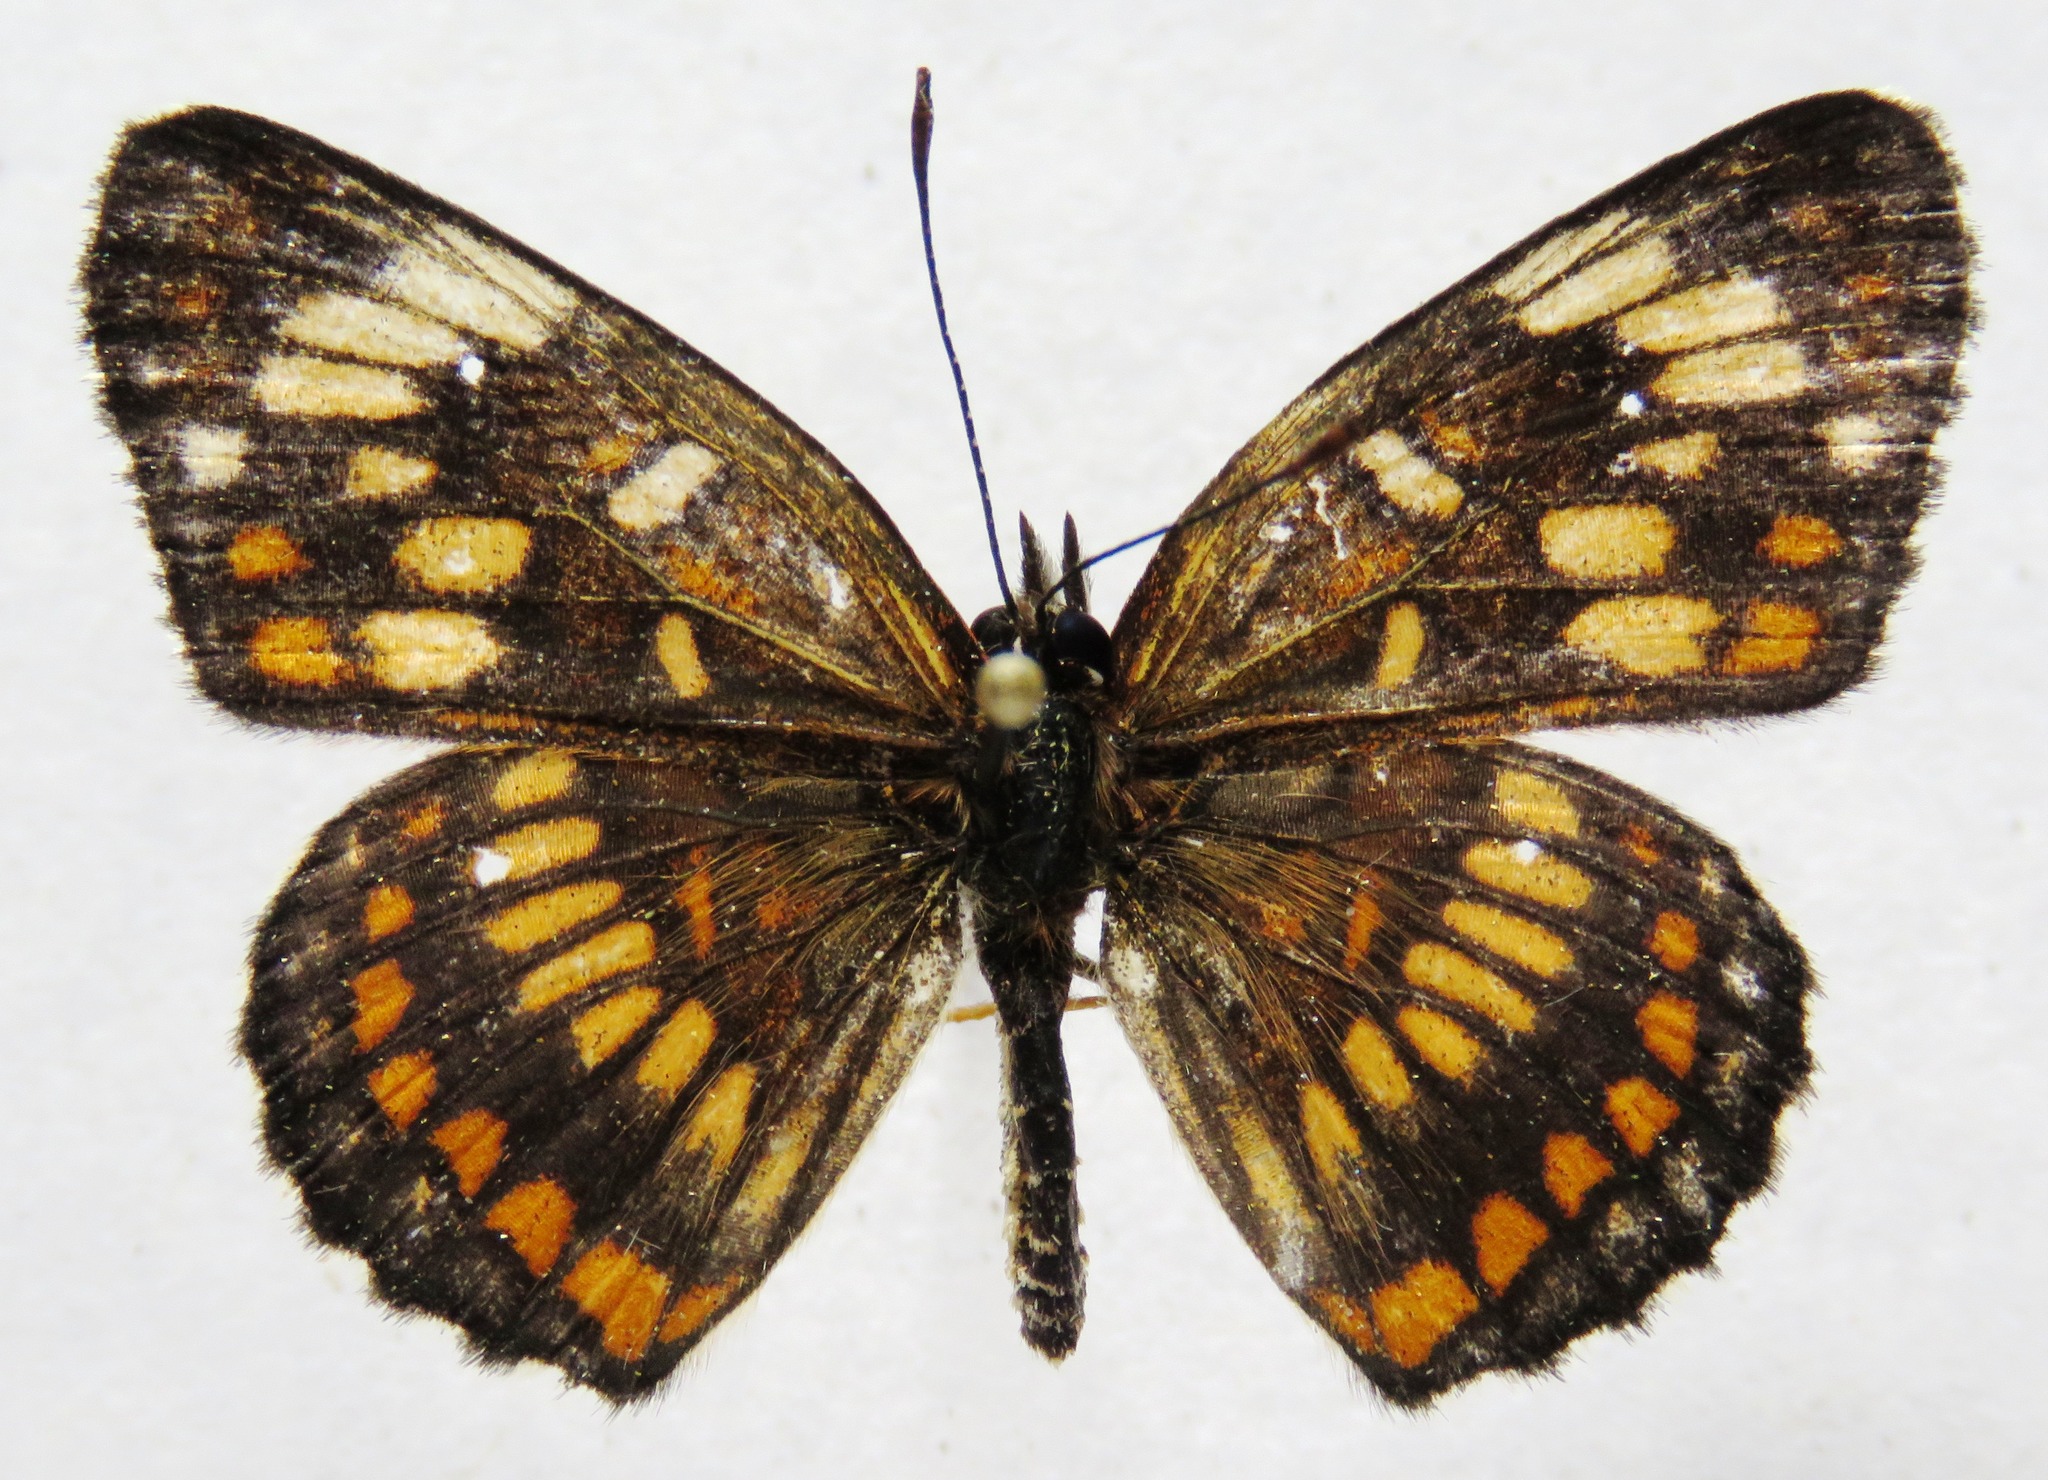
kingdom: Animalia
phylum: Arthropoda
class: Insecta
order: Lepidoptera
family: Nymphalidae
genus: Thessalia
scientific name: Thessalia theona
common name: Nymphalid moth
